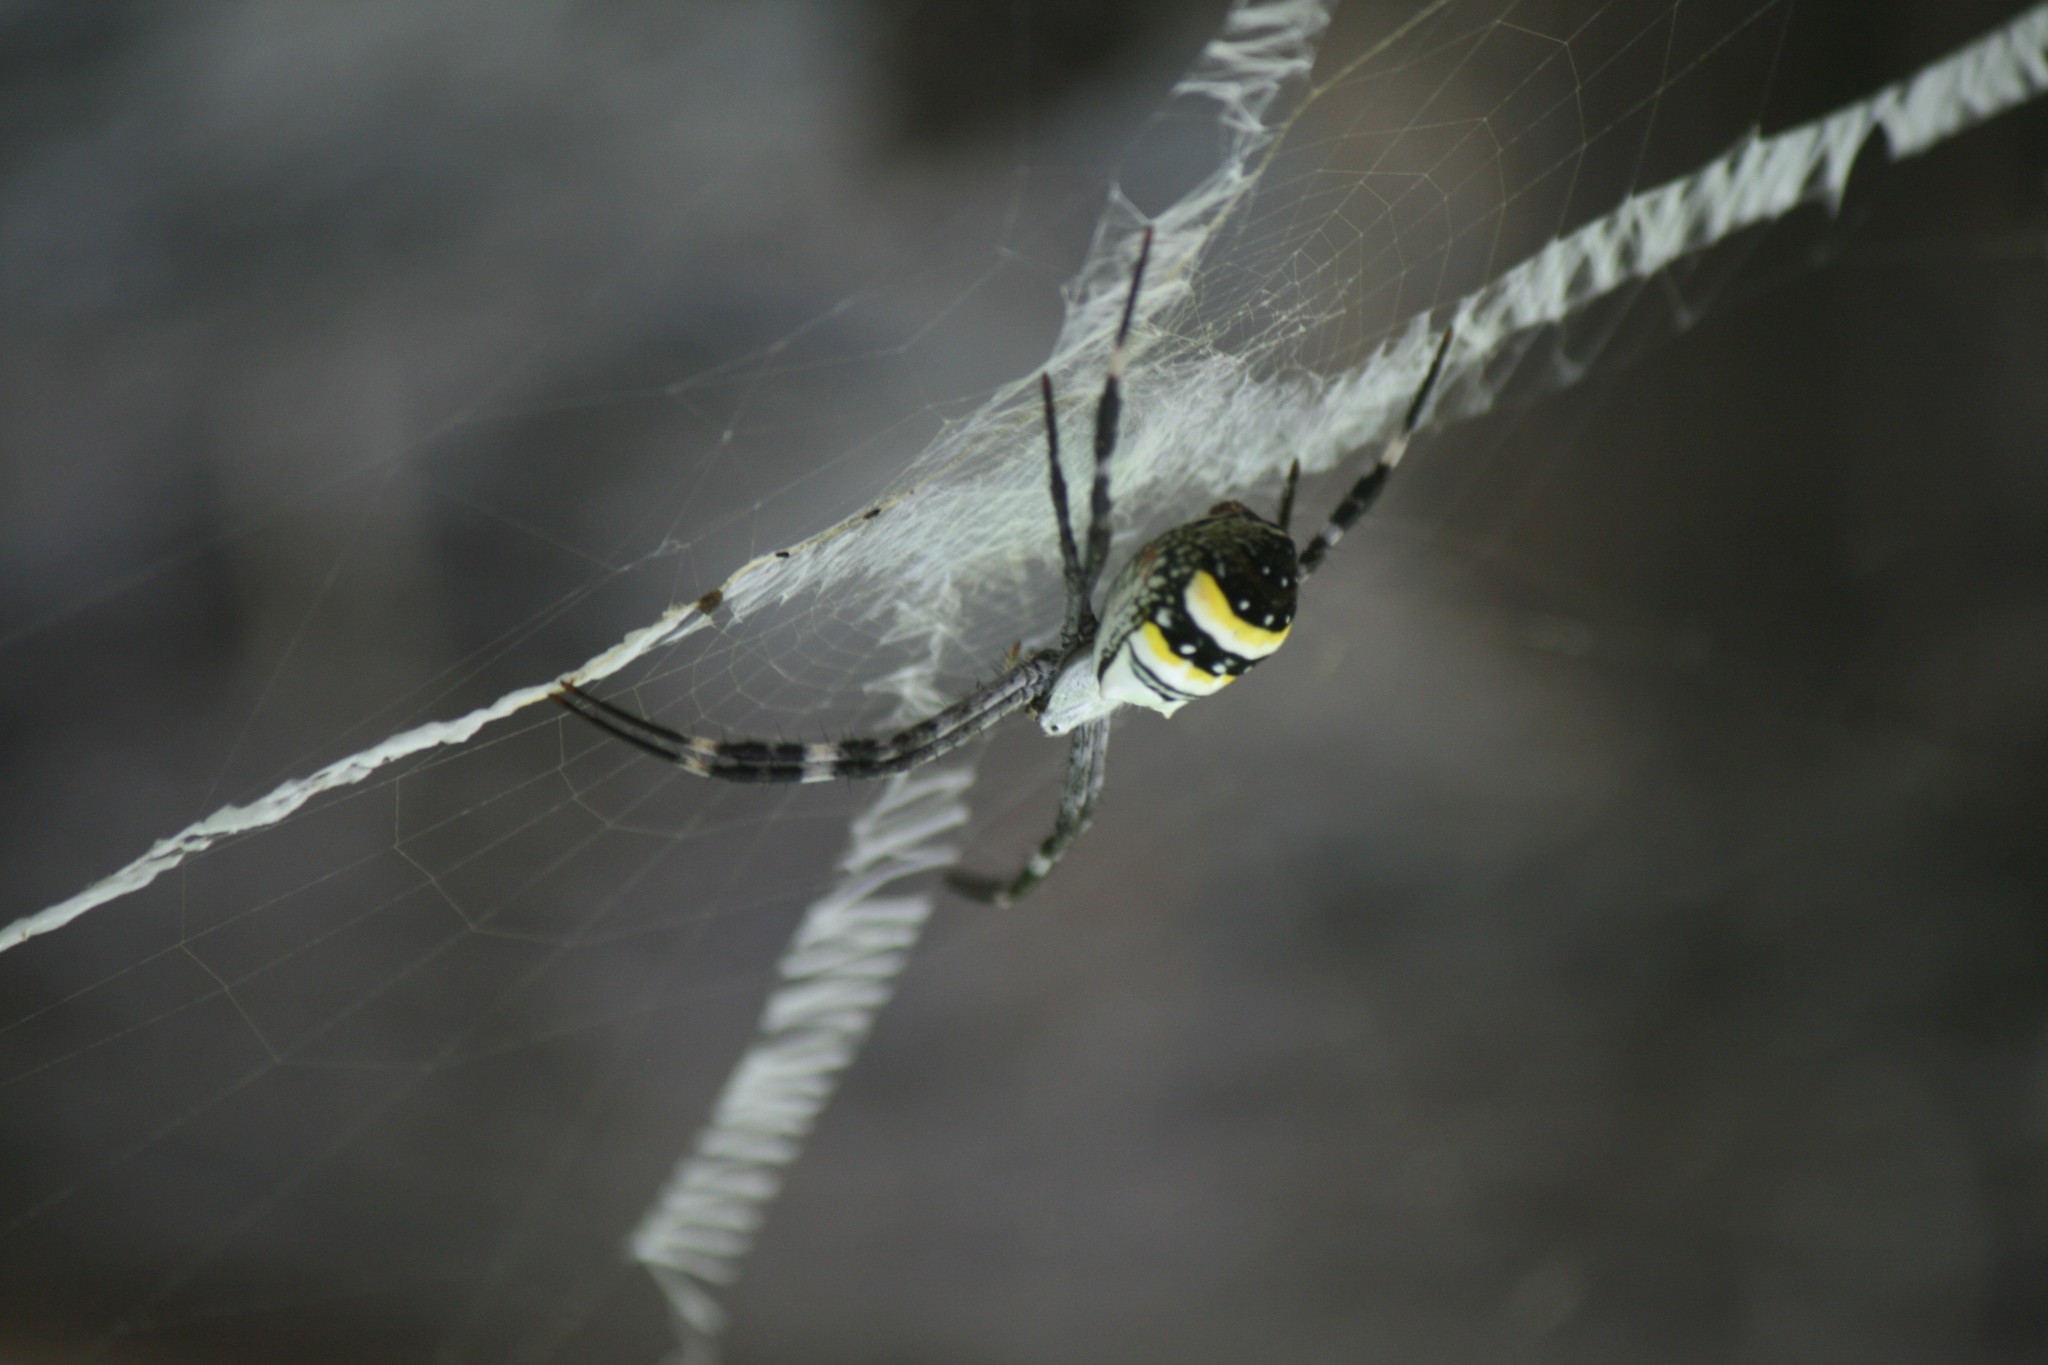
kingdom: Animalia
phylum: Arthropoda
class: Arachnida
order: Araneae
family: Araneidae
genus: Argiope
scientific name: Argiope caledonia
